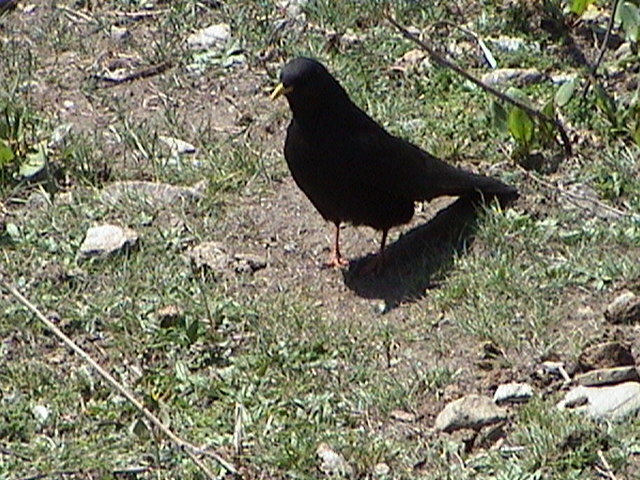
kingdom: Animalia
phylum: Chordata
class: Aves
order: Passeriformes
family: Corvidae
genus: Pyrrhocorax
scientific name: Pyrrhocorax graculus
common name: Alpine chough
